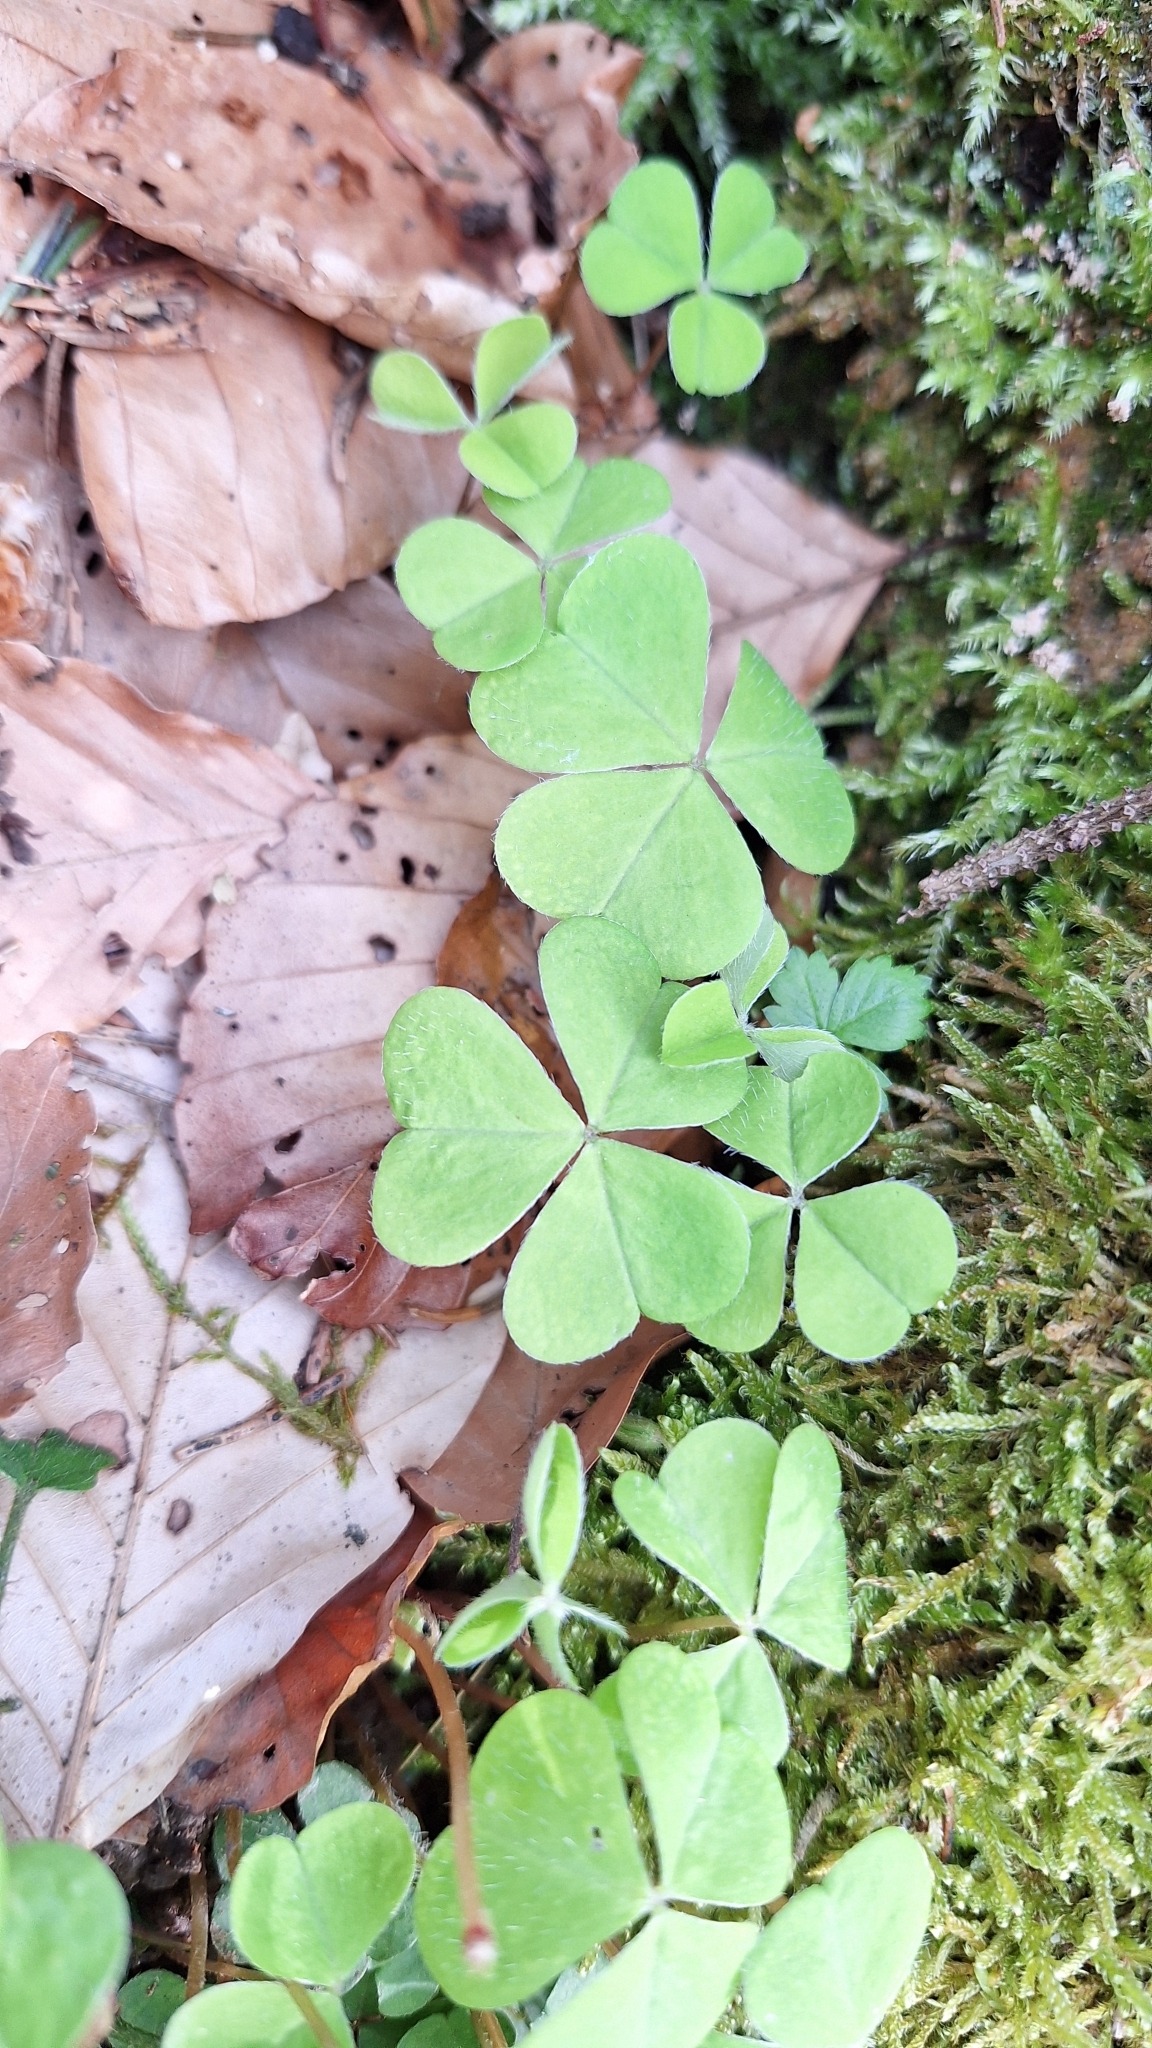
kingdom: Plantae
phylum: Tracheophyta
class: Magnoliopsida
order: Oxalidales
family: Oxalidaceae
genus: Oxalis
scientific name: Oxalis acetosella
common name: Wood-sorrel
